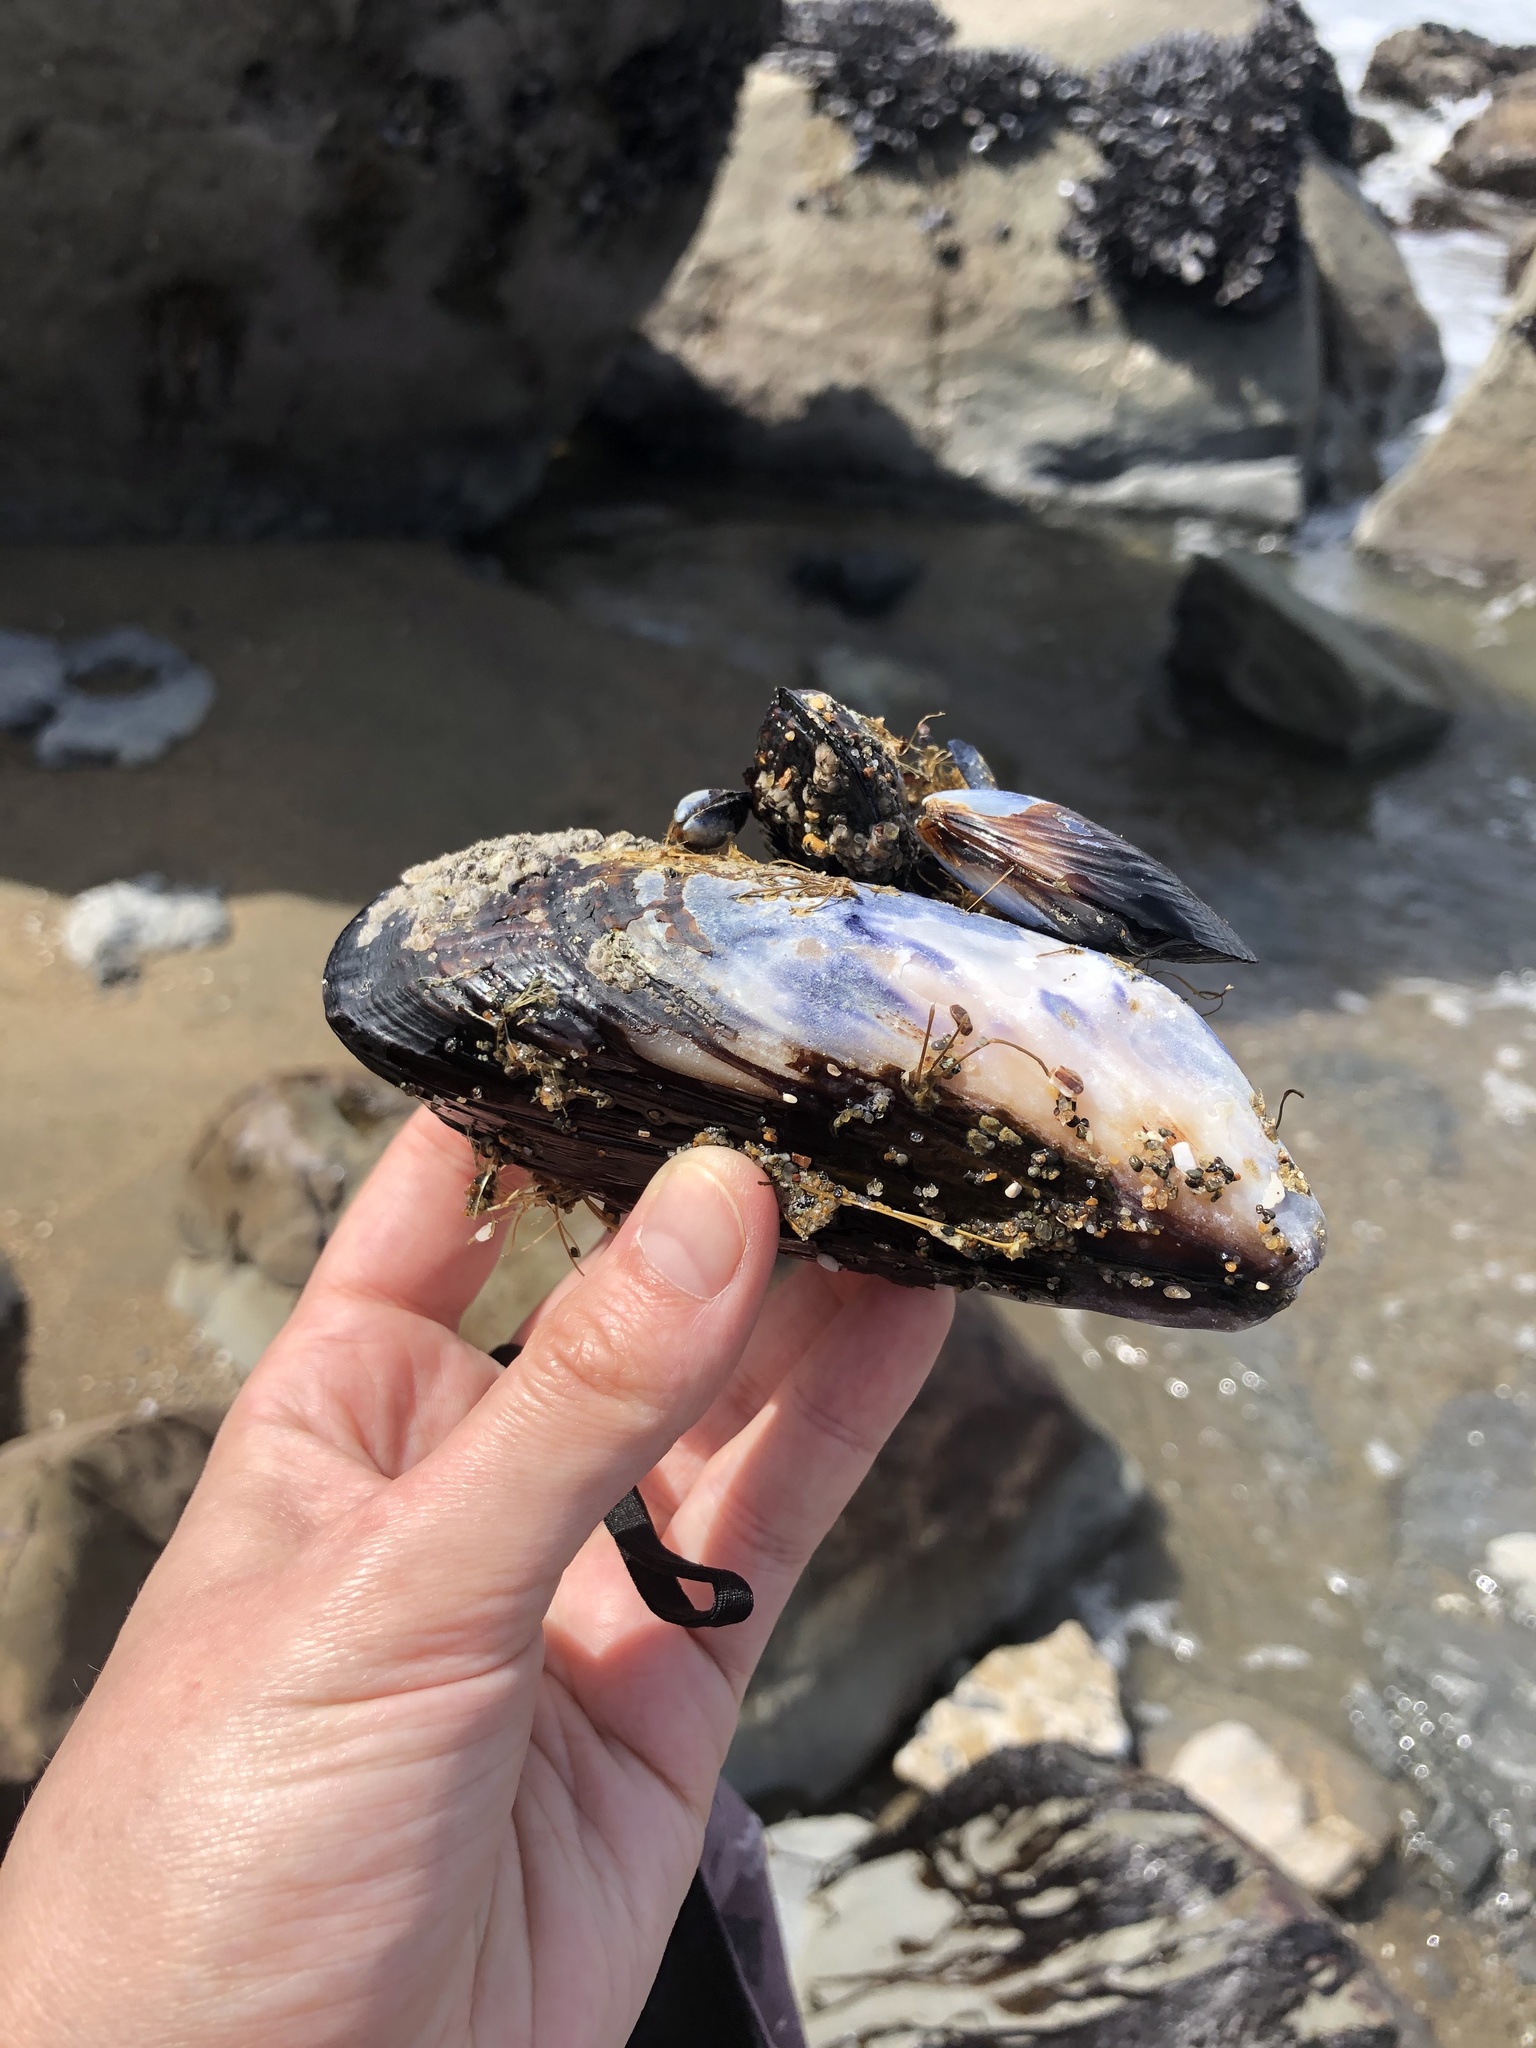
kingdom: Animalia
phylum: Mollusca
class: Bivalvia
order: Mytilida
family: Mytilidae
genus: Mytilus
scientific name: Mytilus californianus
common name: California mussel
